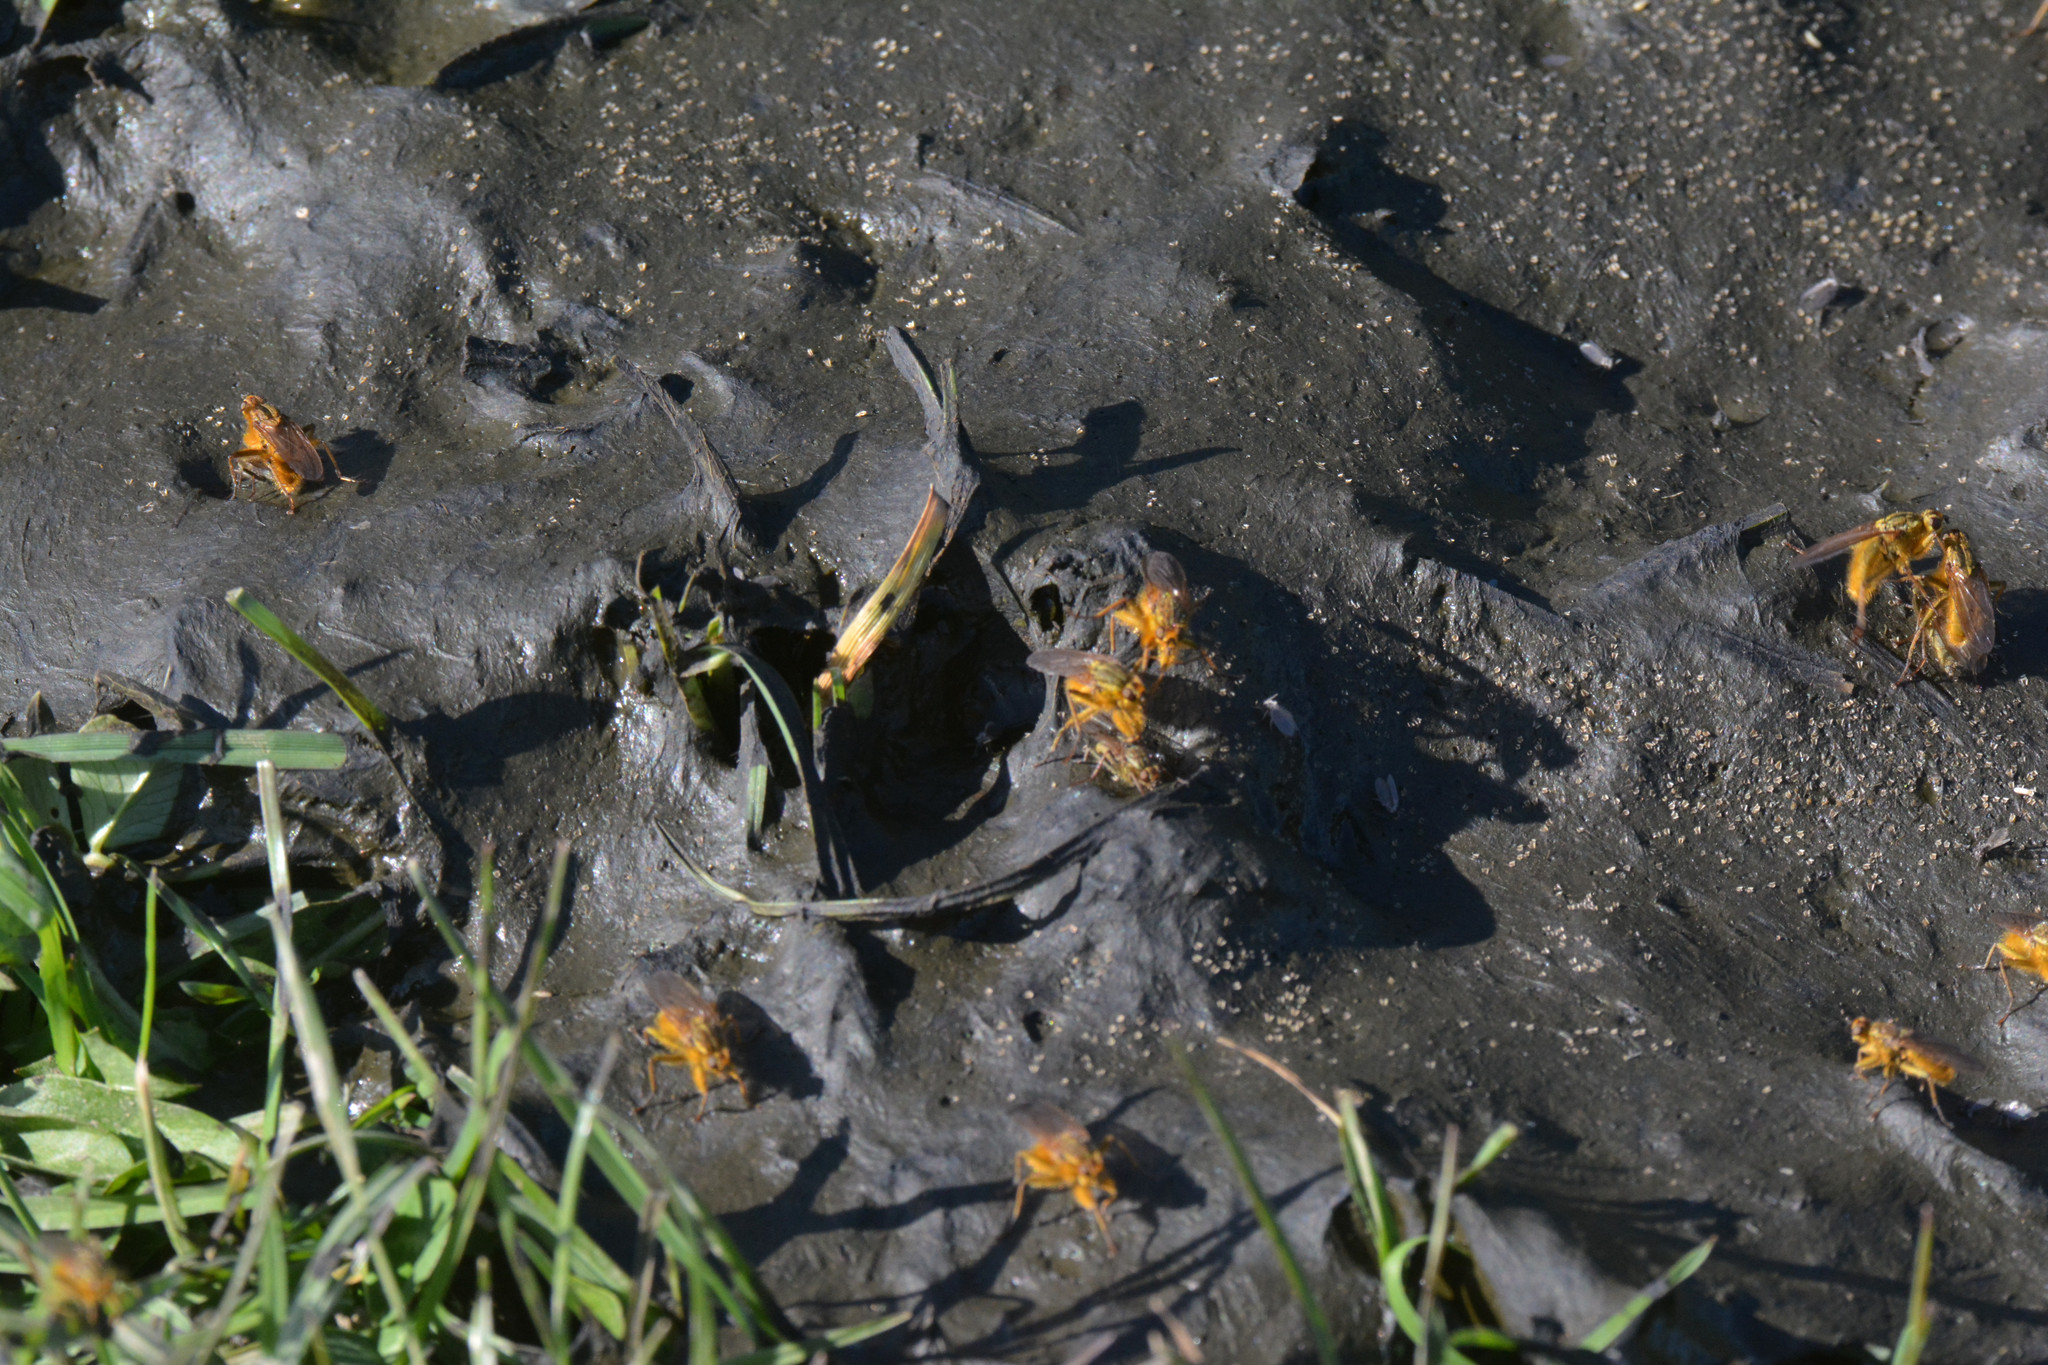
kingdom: Animalia
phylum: Arthropoda
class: Insecta
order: Diptera
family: Scathophagidae
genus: Scathophaga
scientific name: Scathophaga stercoraria
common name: Yellow dung fly
